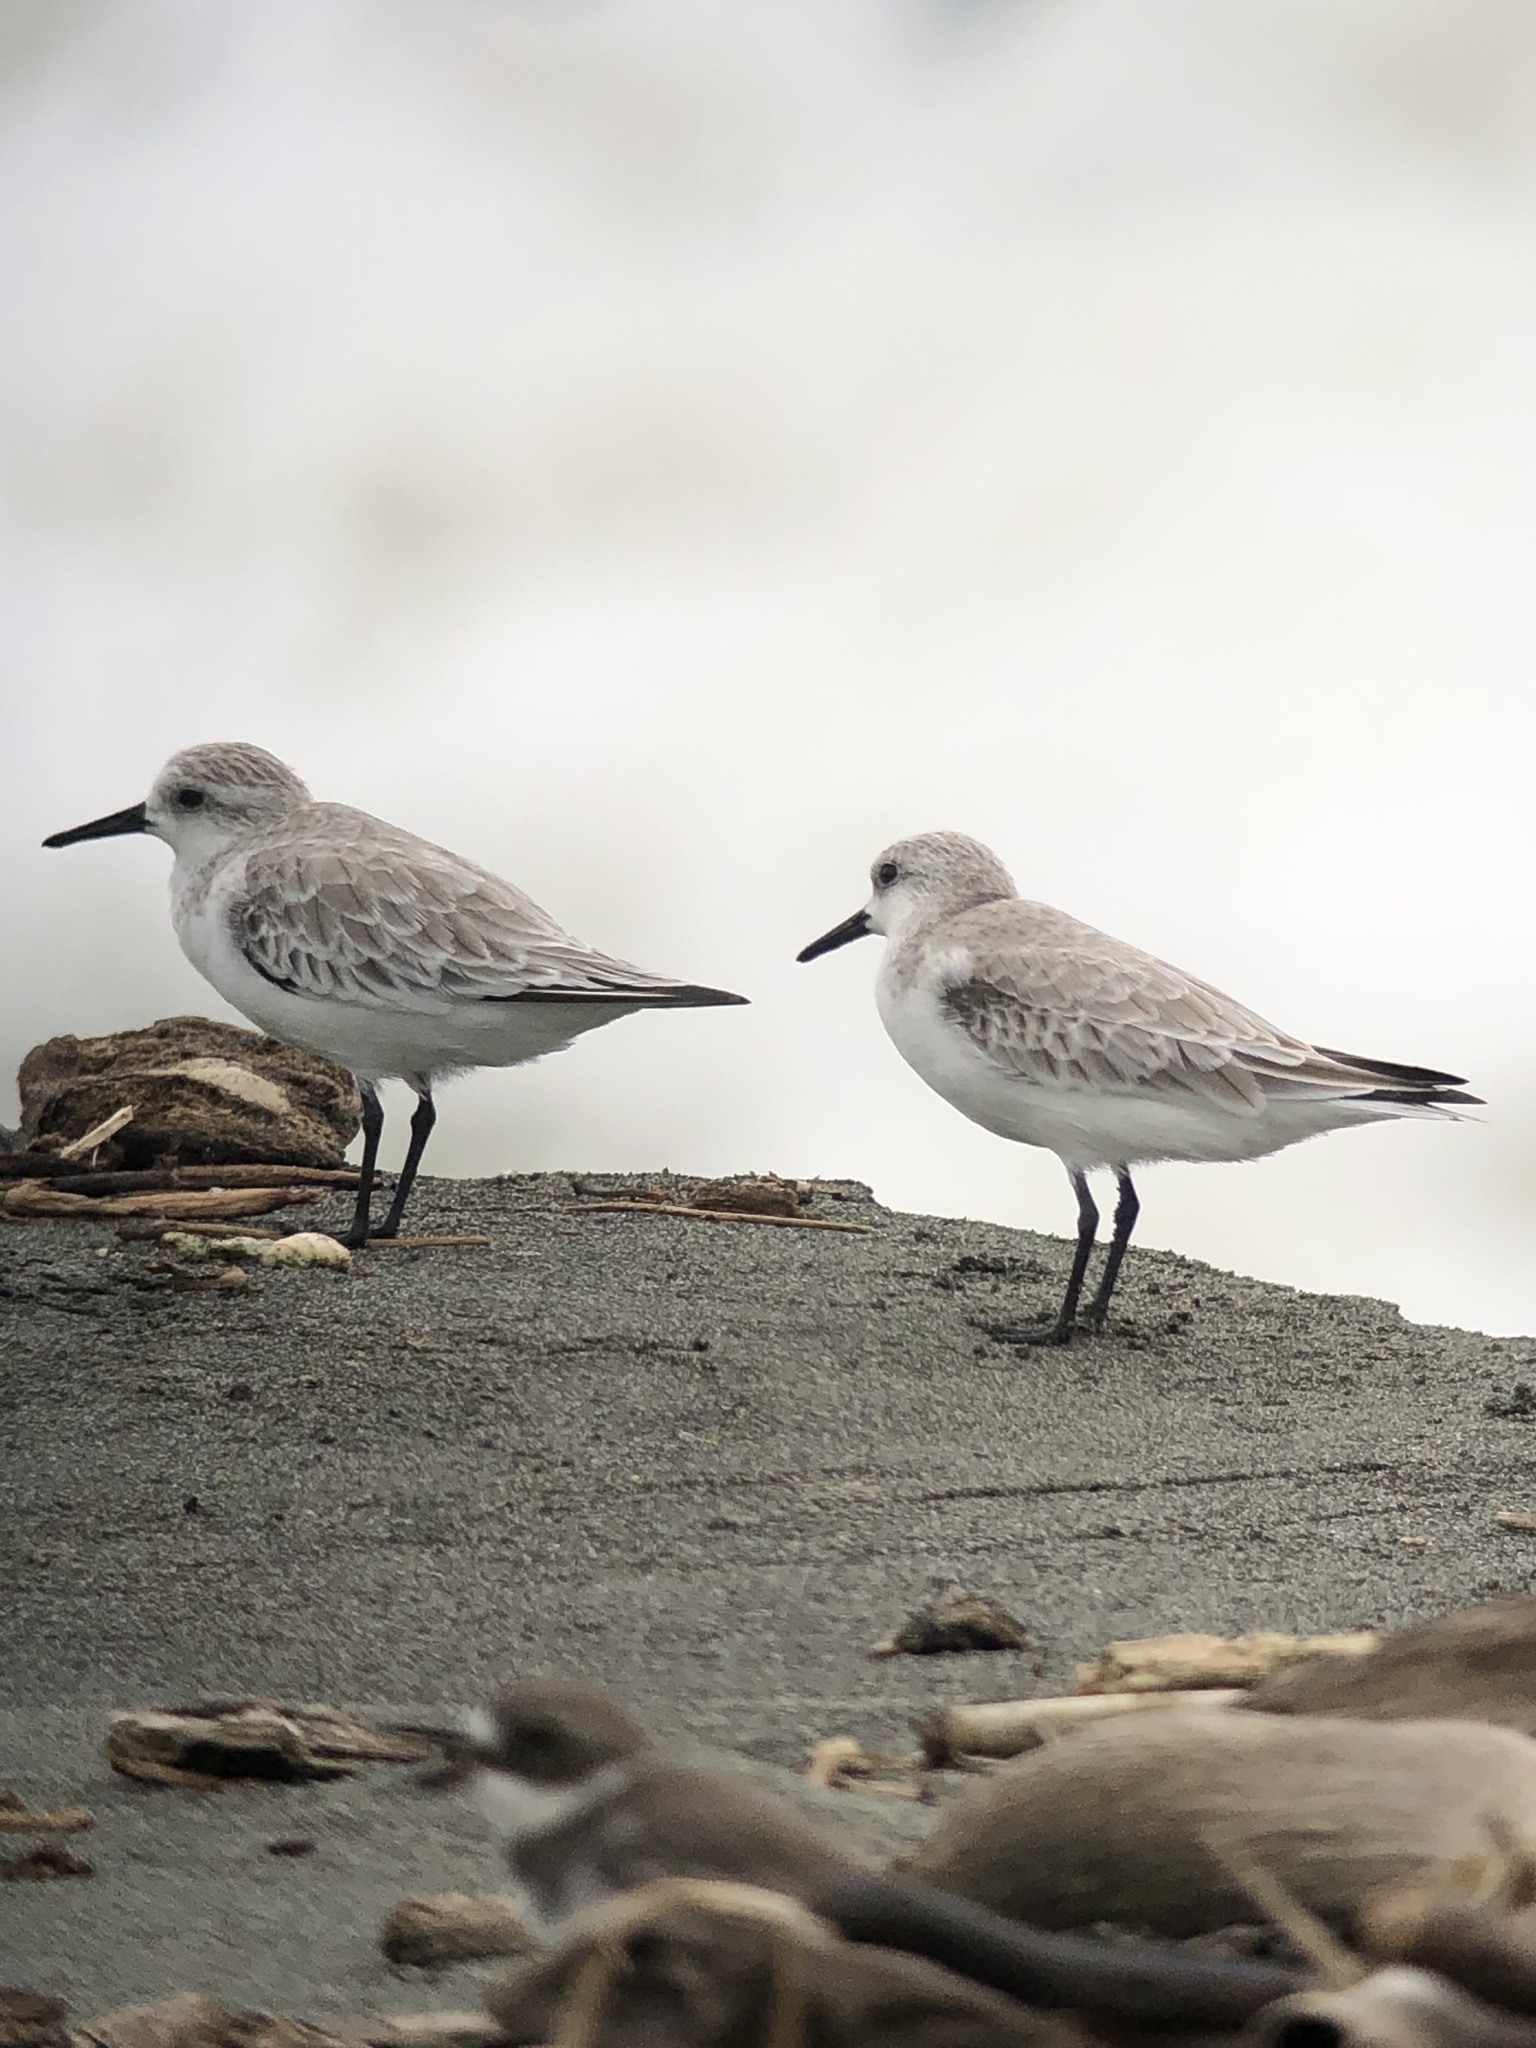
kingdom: Animalia
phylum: Chordata
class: Aves
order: Charadriiformes
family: Scolopacidae
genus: Calidris
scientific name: Calidris alba
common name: Sanderling
